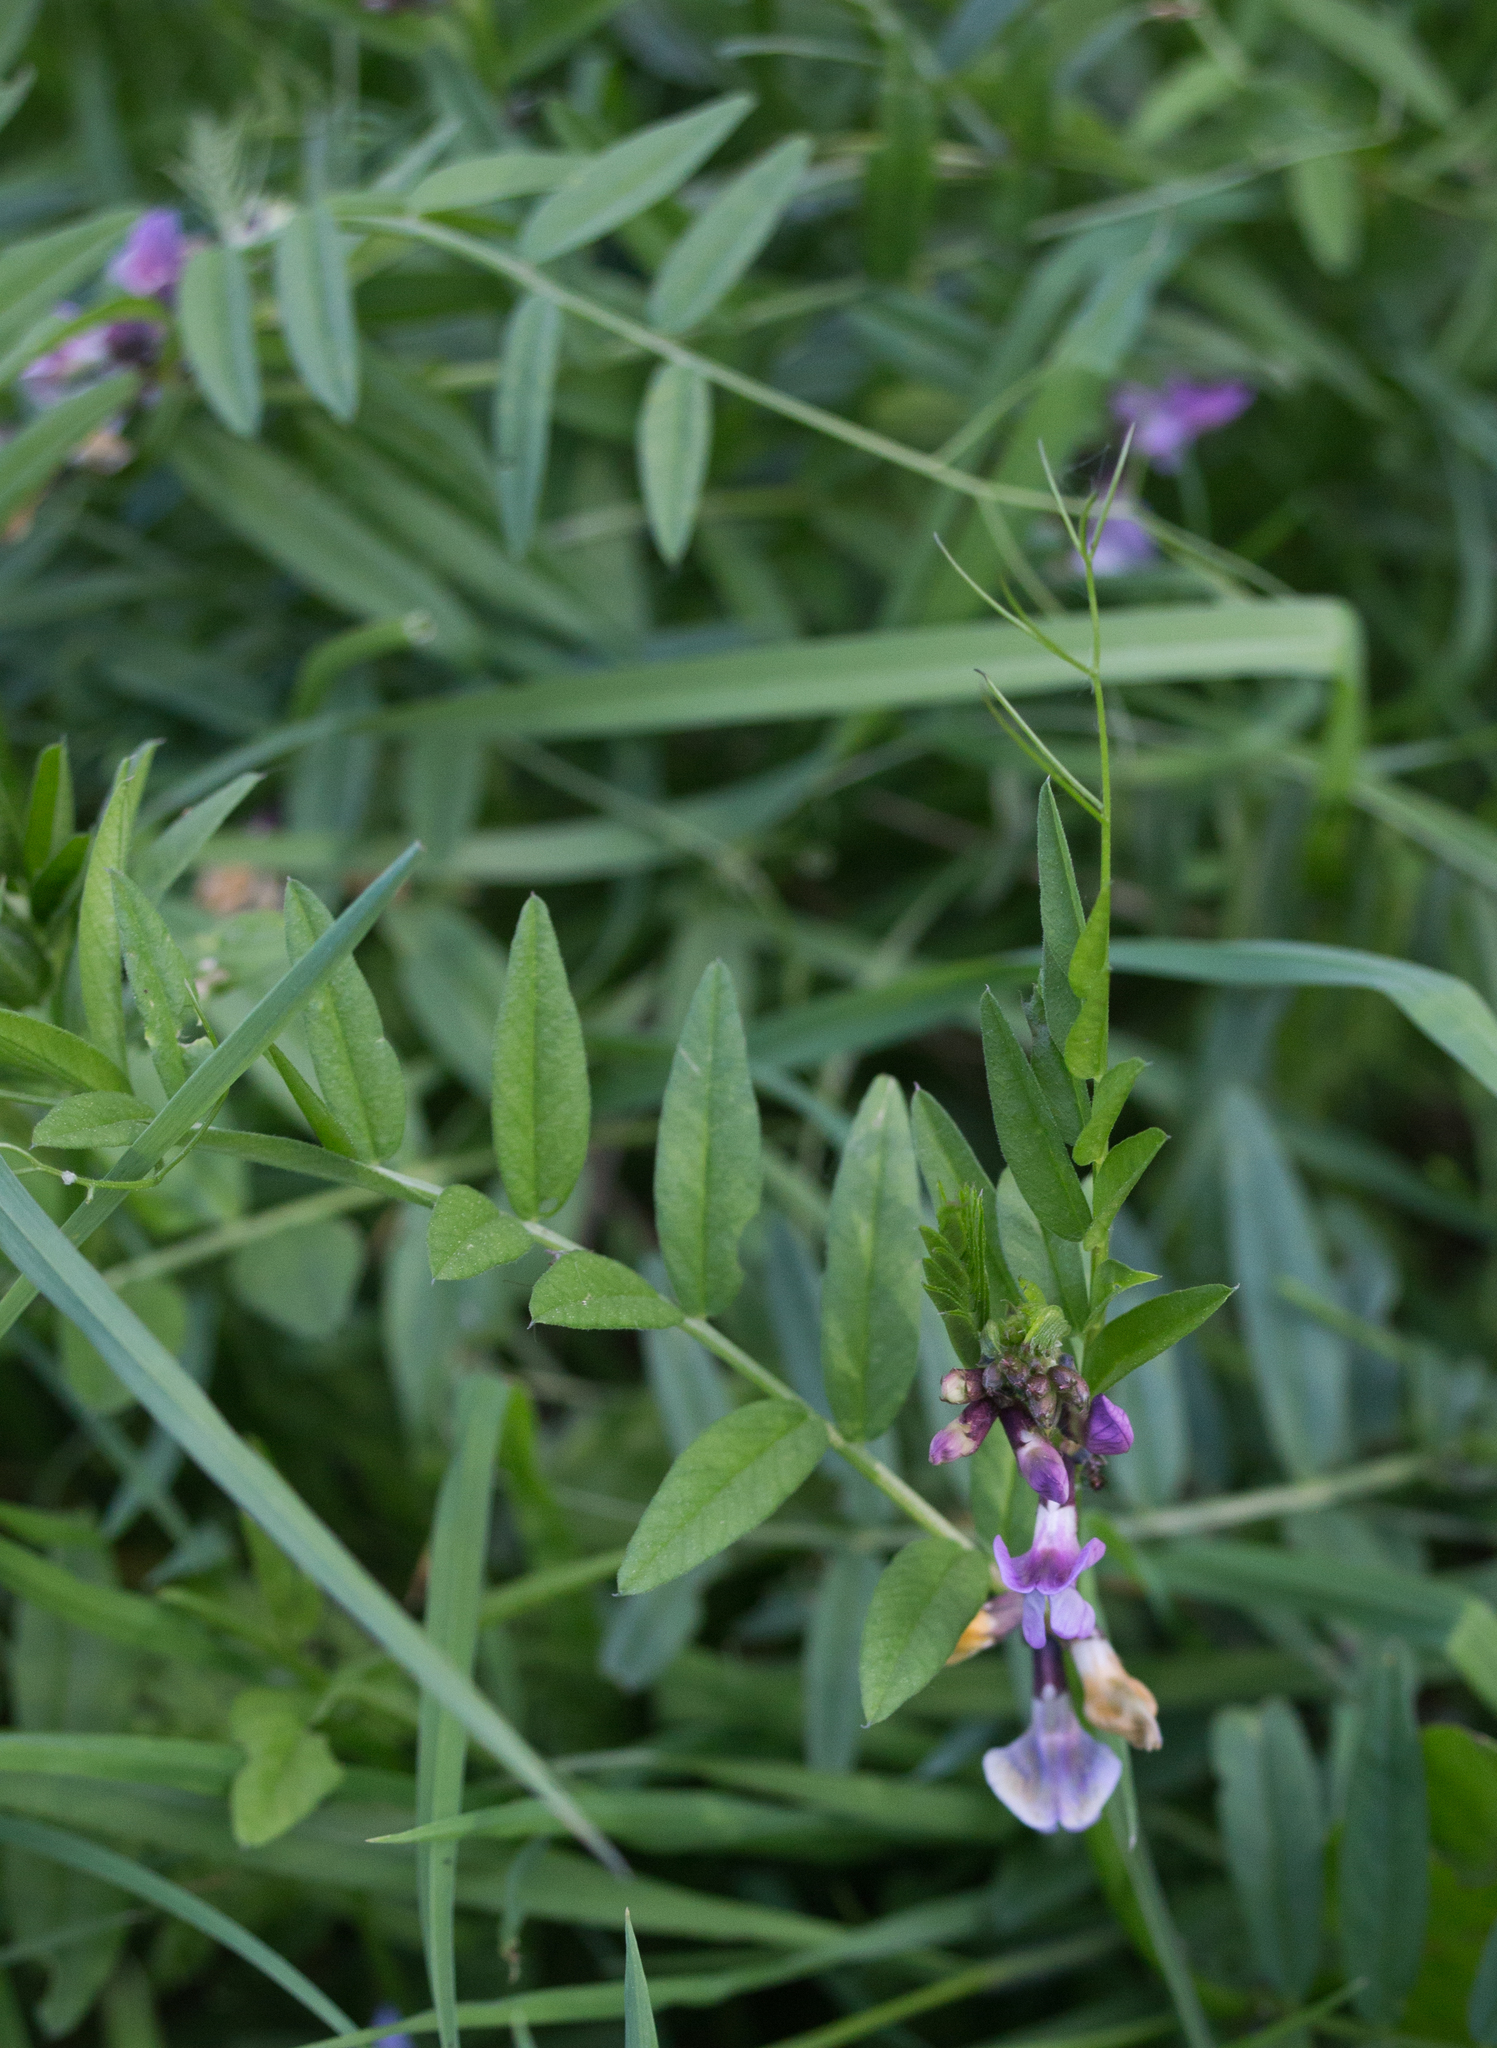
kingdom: Plantae
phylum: Tracheophyta
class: Magnoliopsida
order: Fabales
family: Fabaceae
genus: Vicia
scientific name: Vicia sepium
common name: Bush vetch
